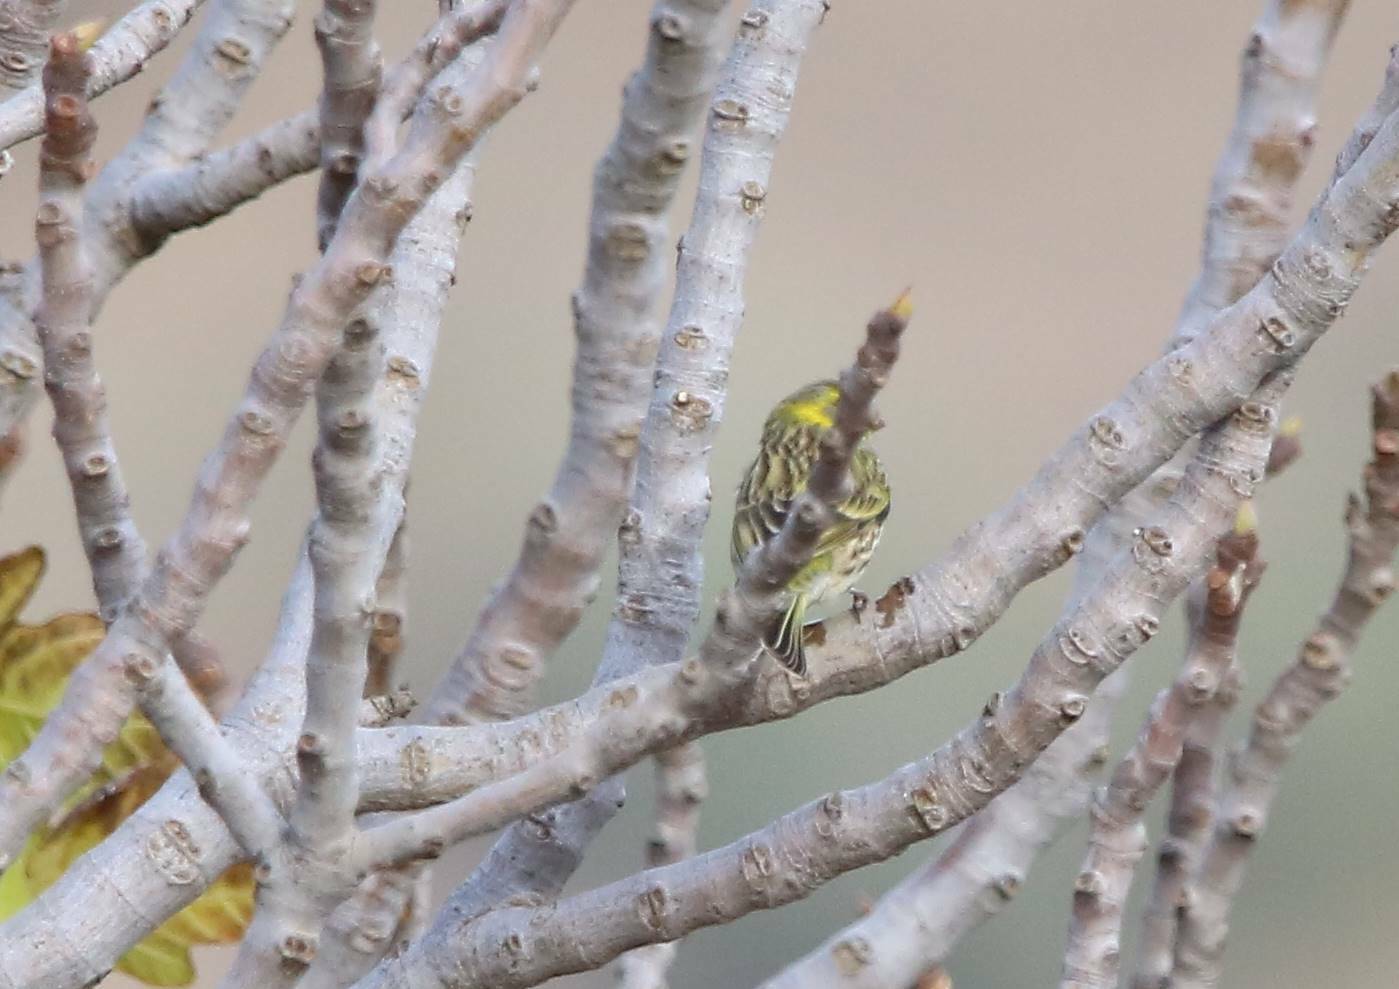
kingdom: Animalia
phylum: Chordata
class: Aves
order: Passeriformes
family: Fringillidae
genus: Serinus
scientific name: Serinus serinus
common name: European serin
